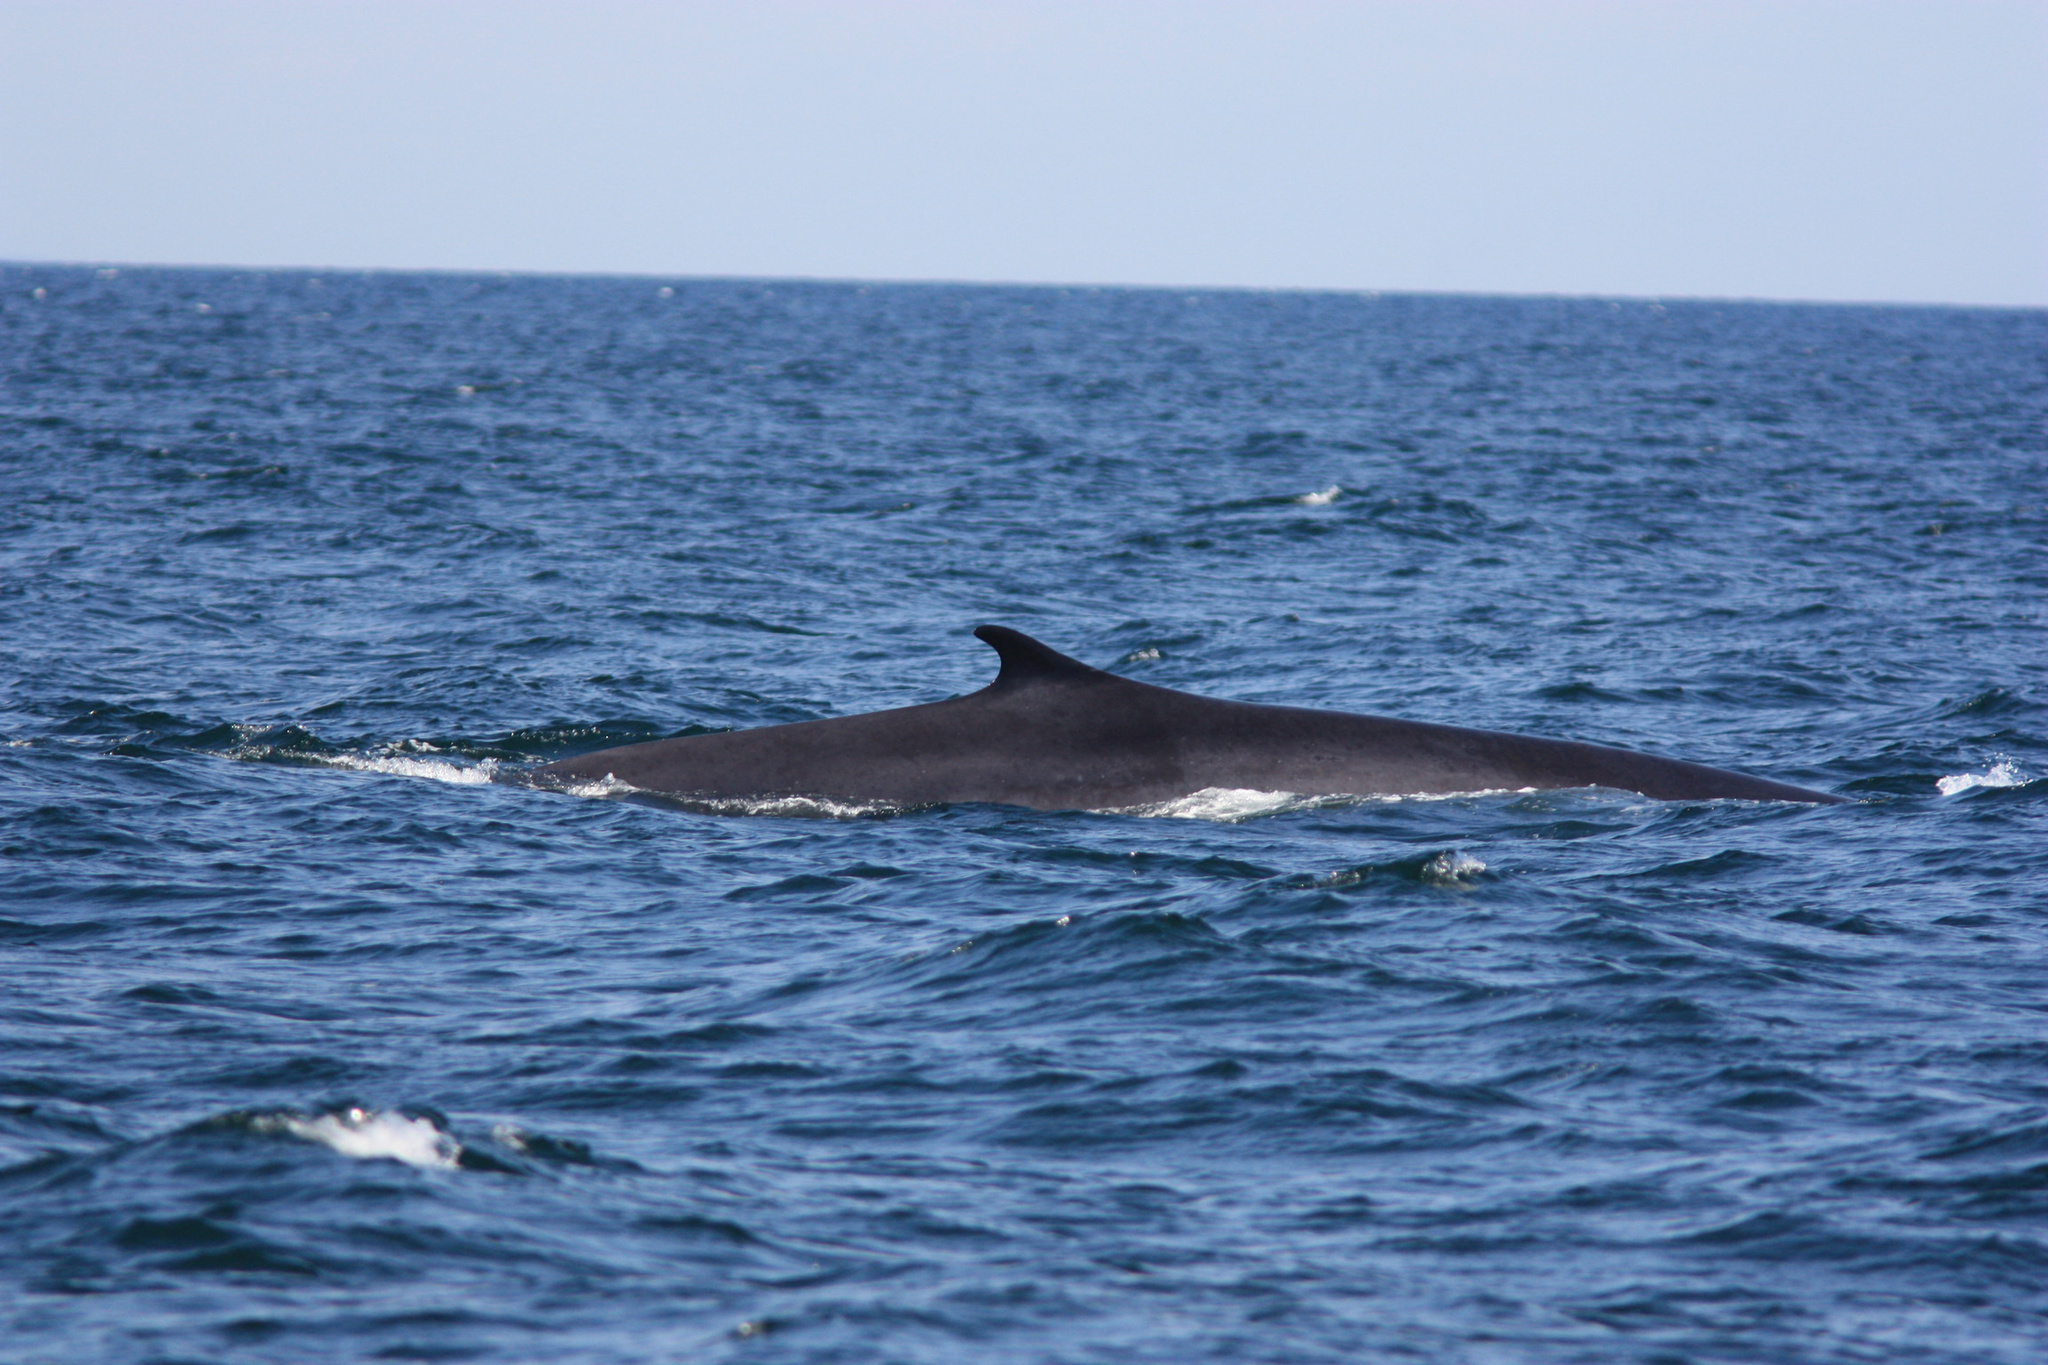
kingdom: Animalia
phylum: Chordata
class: Mammalia
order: Cetacea
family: Balaenopteridae
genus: Balaenoptera
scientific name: Balaenoptera physalus
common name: Fin whale
